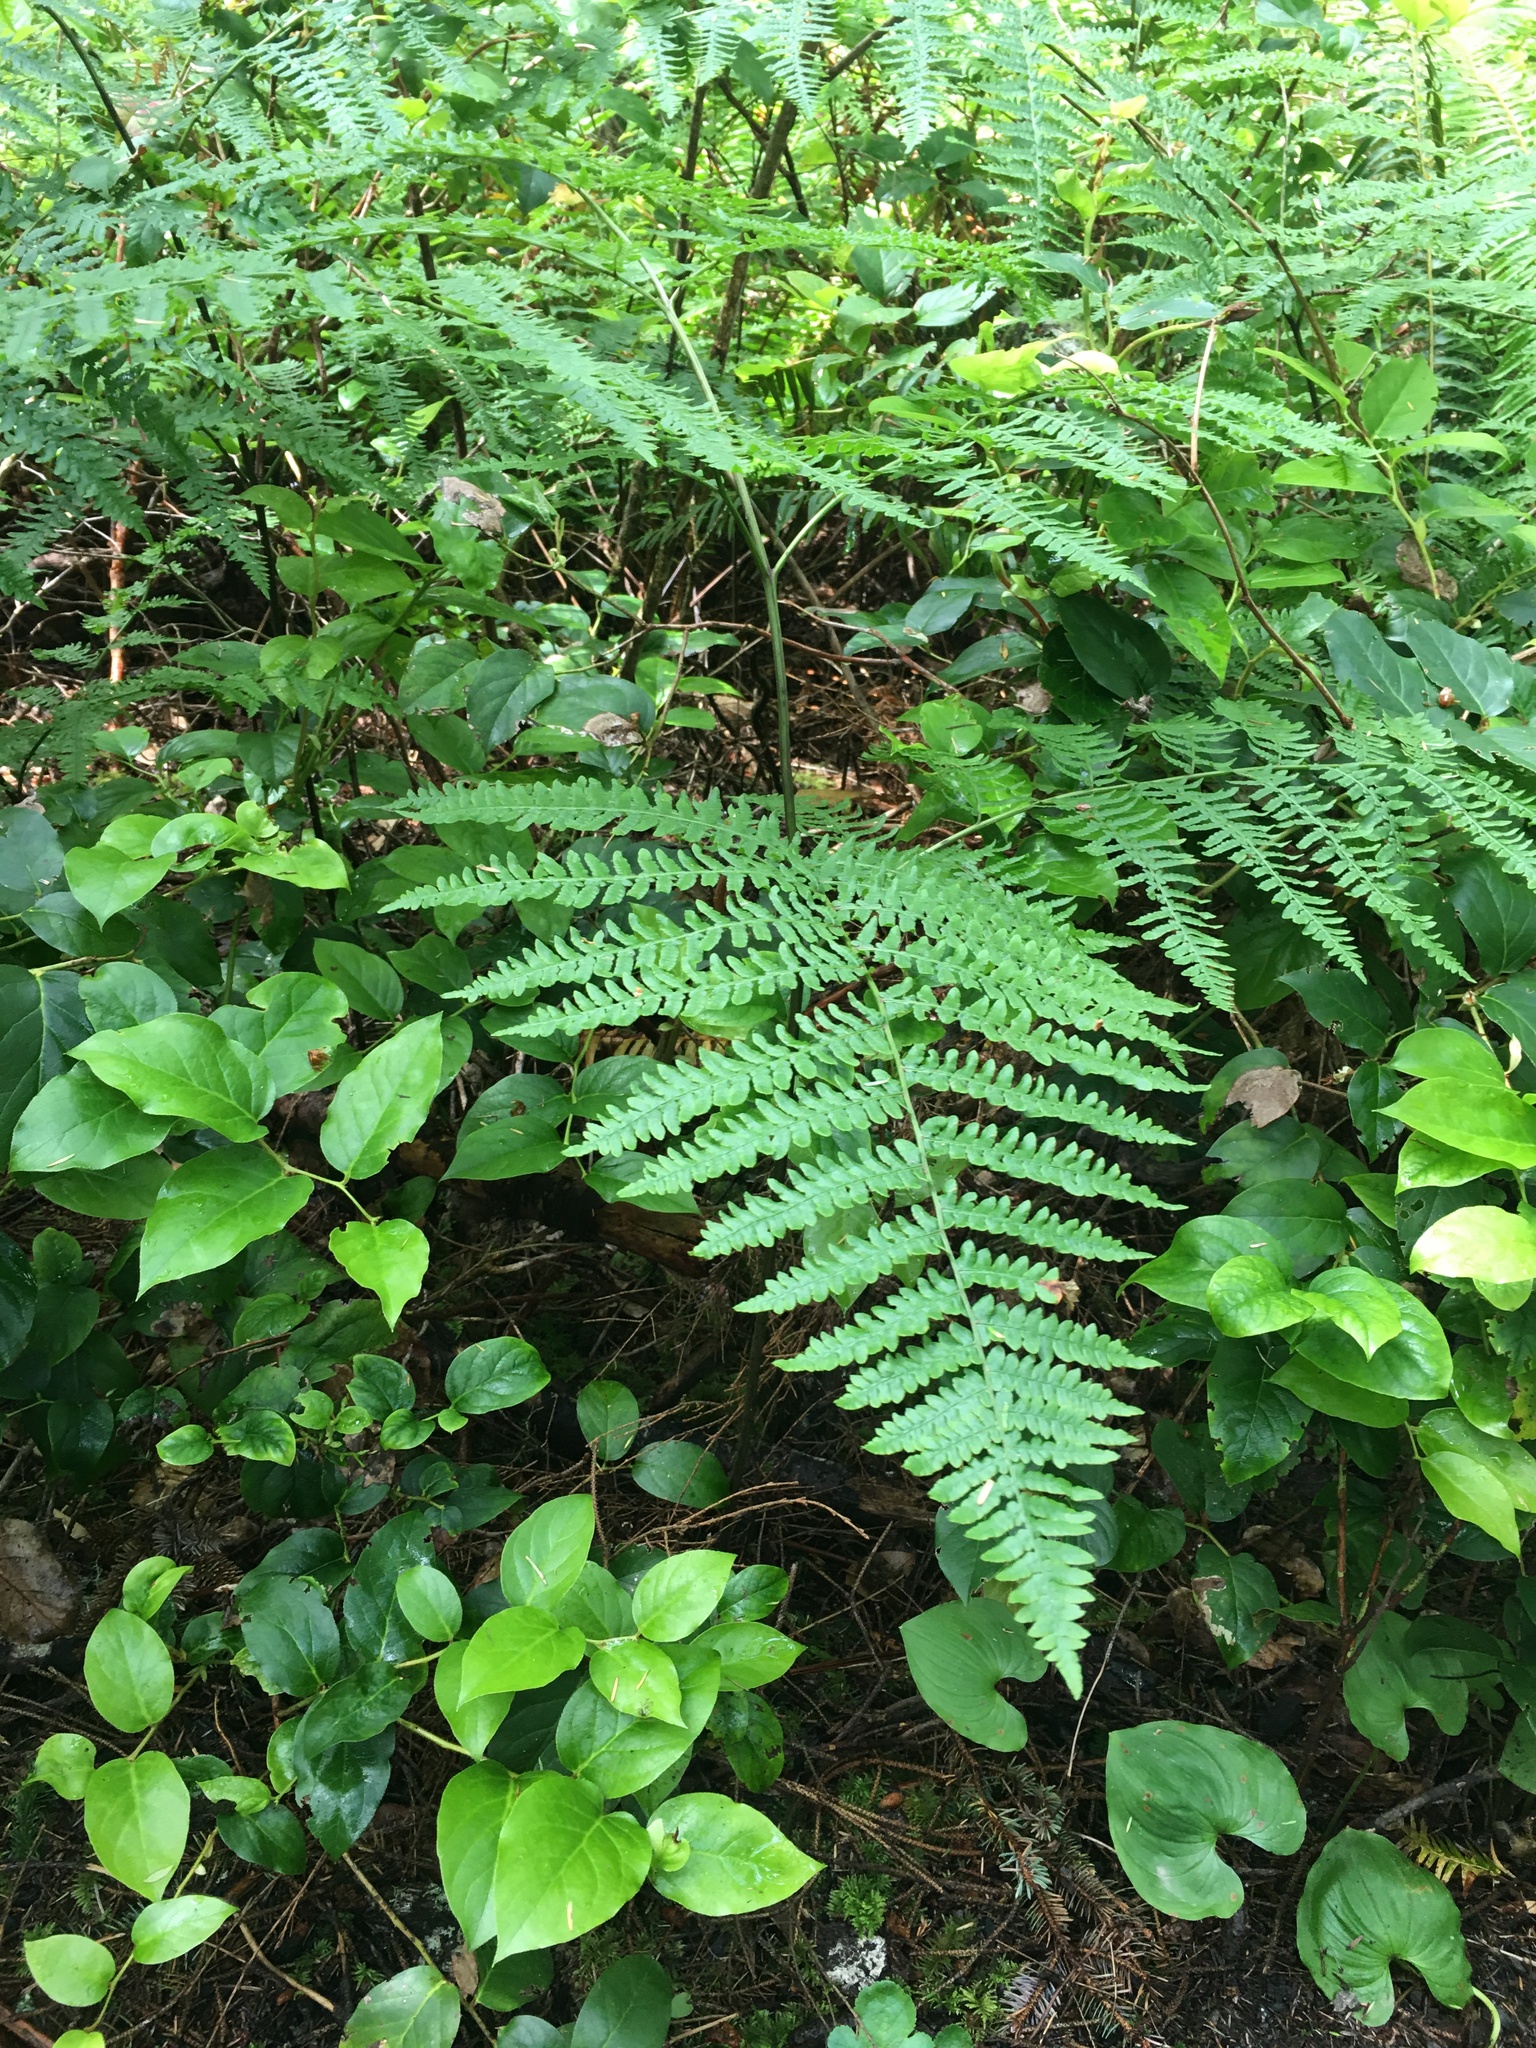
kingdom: Plantae
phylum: Tracheophyta
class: Polypodiopsida
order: Polypodiales
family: Dennstaedtiaceae
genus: Pteridium
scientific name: Pteridium aquilinum
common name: Bracken
